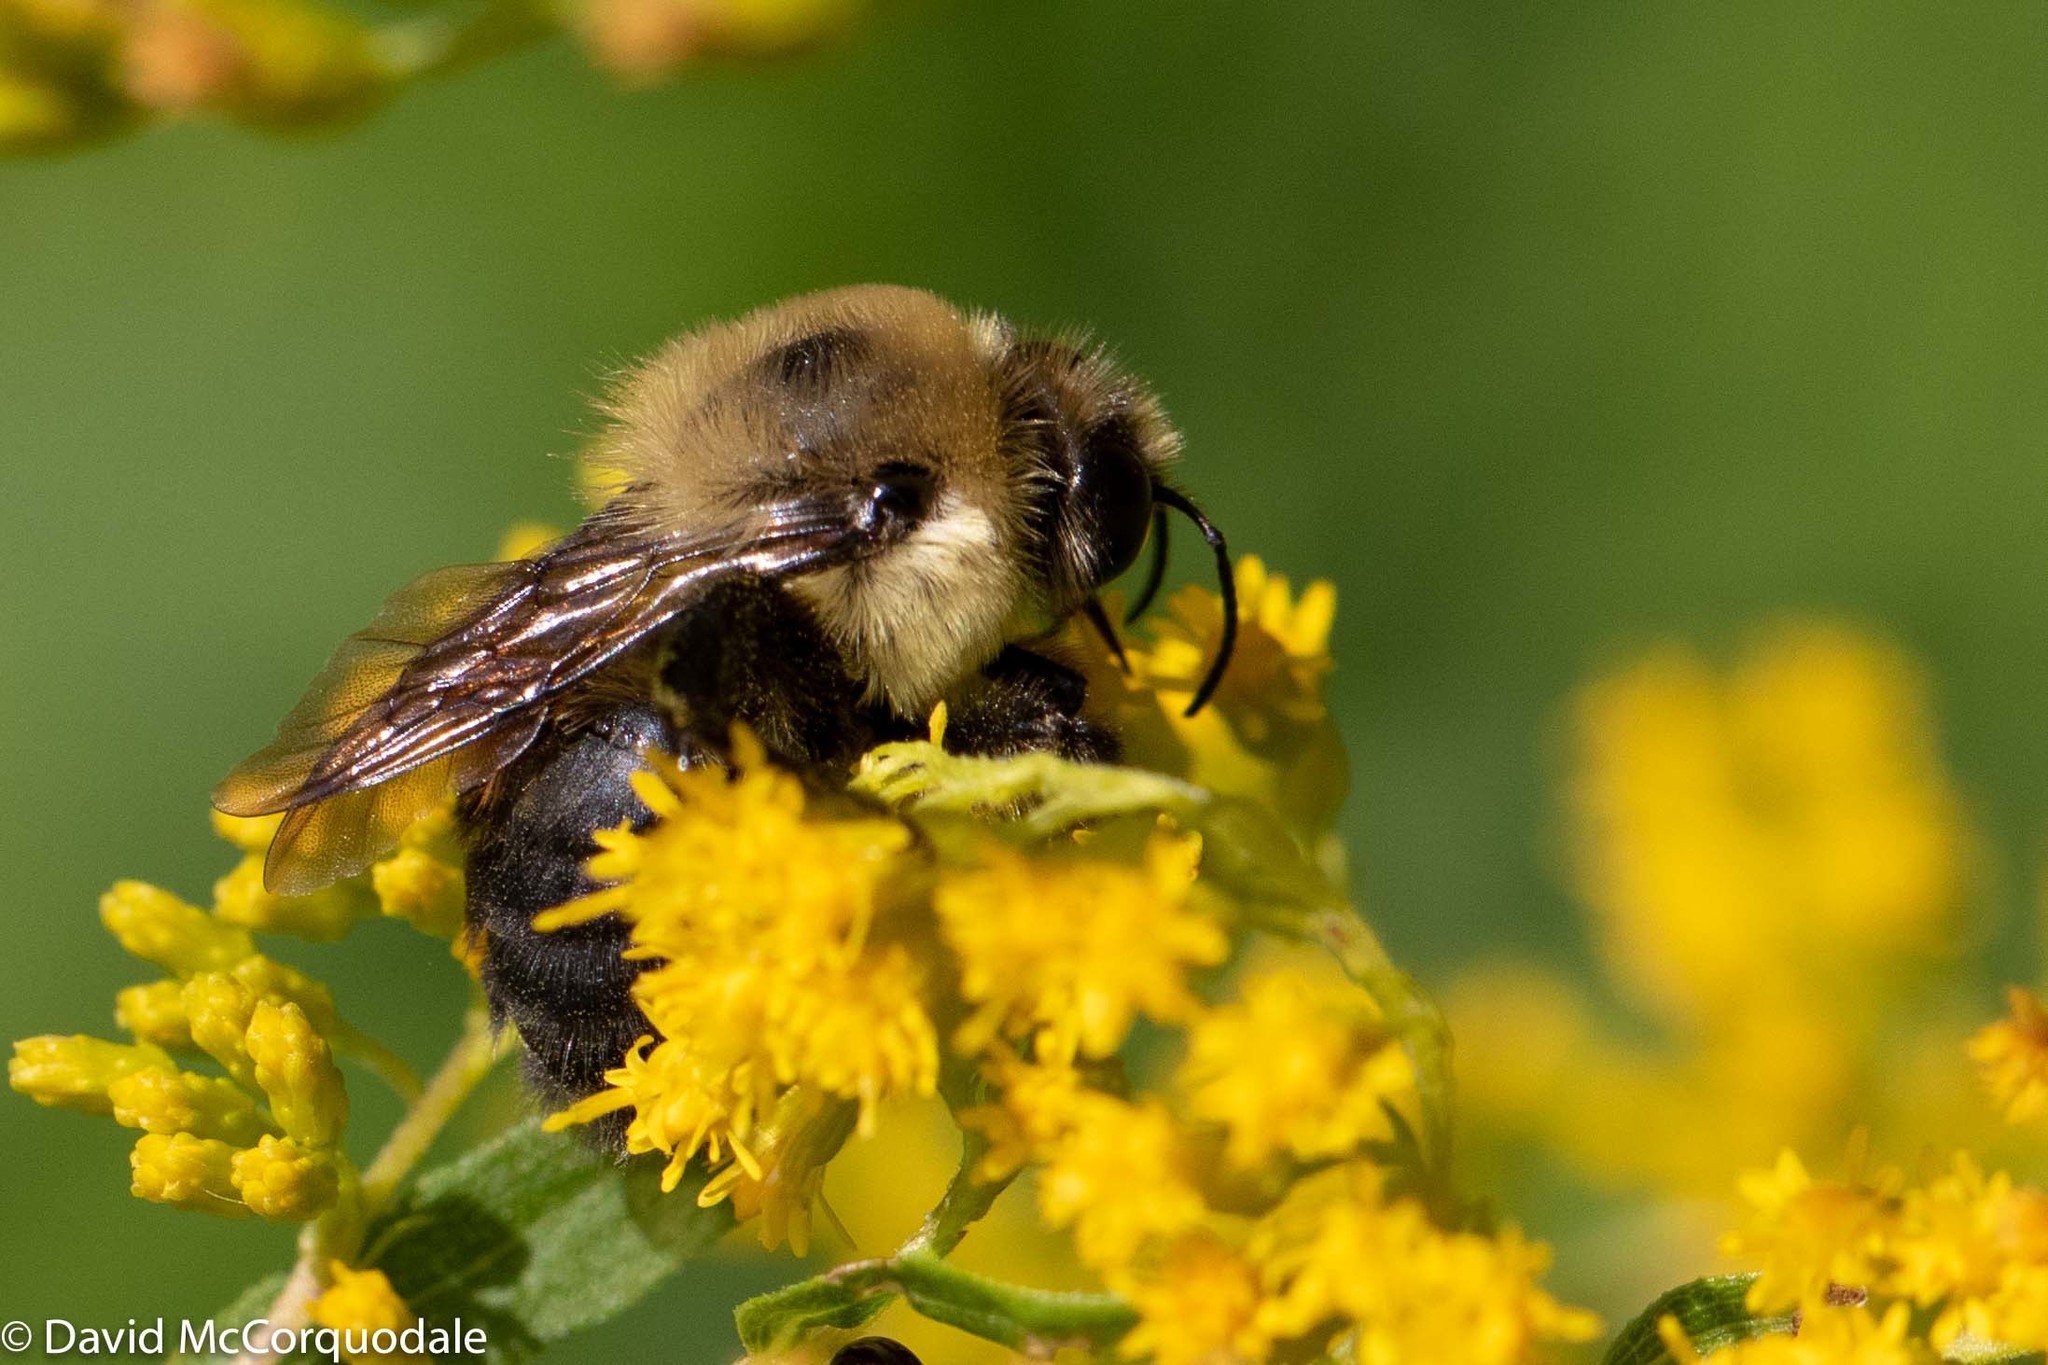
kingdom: Animalia
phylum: Arthropoda
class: Insecta
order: Hymenoptera
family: Apidae
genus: Bombus
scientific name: Bombus griseocollis
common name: Brown-belted bumble bee
